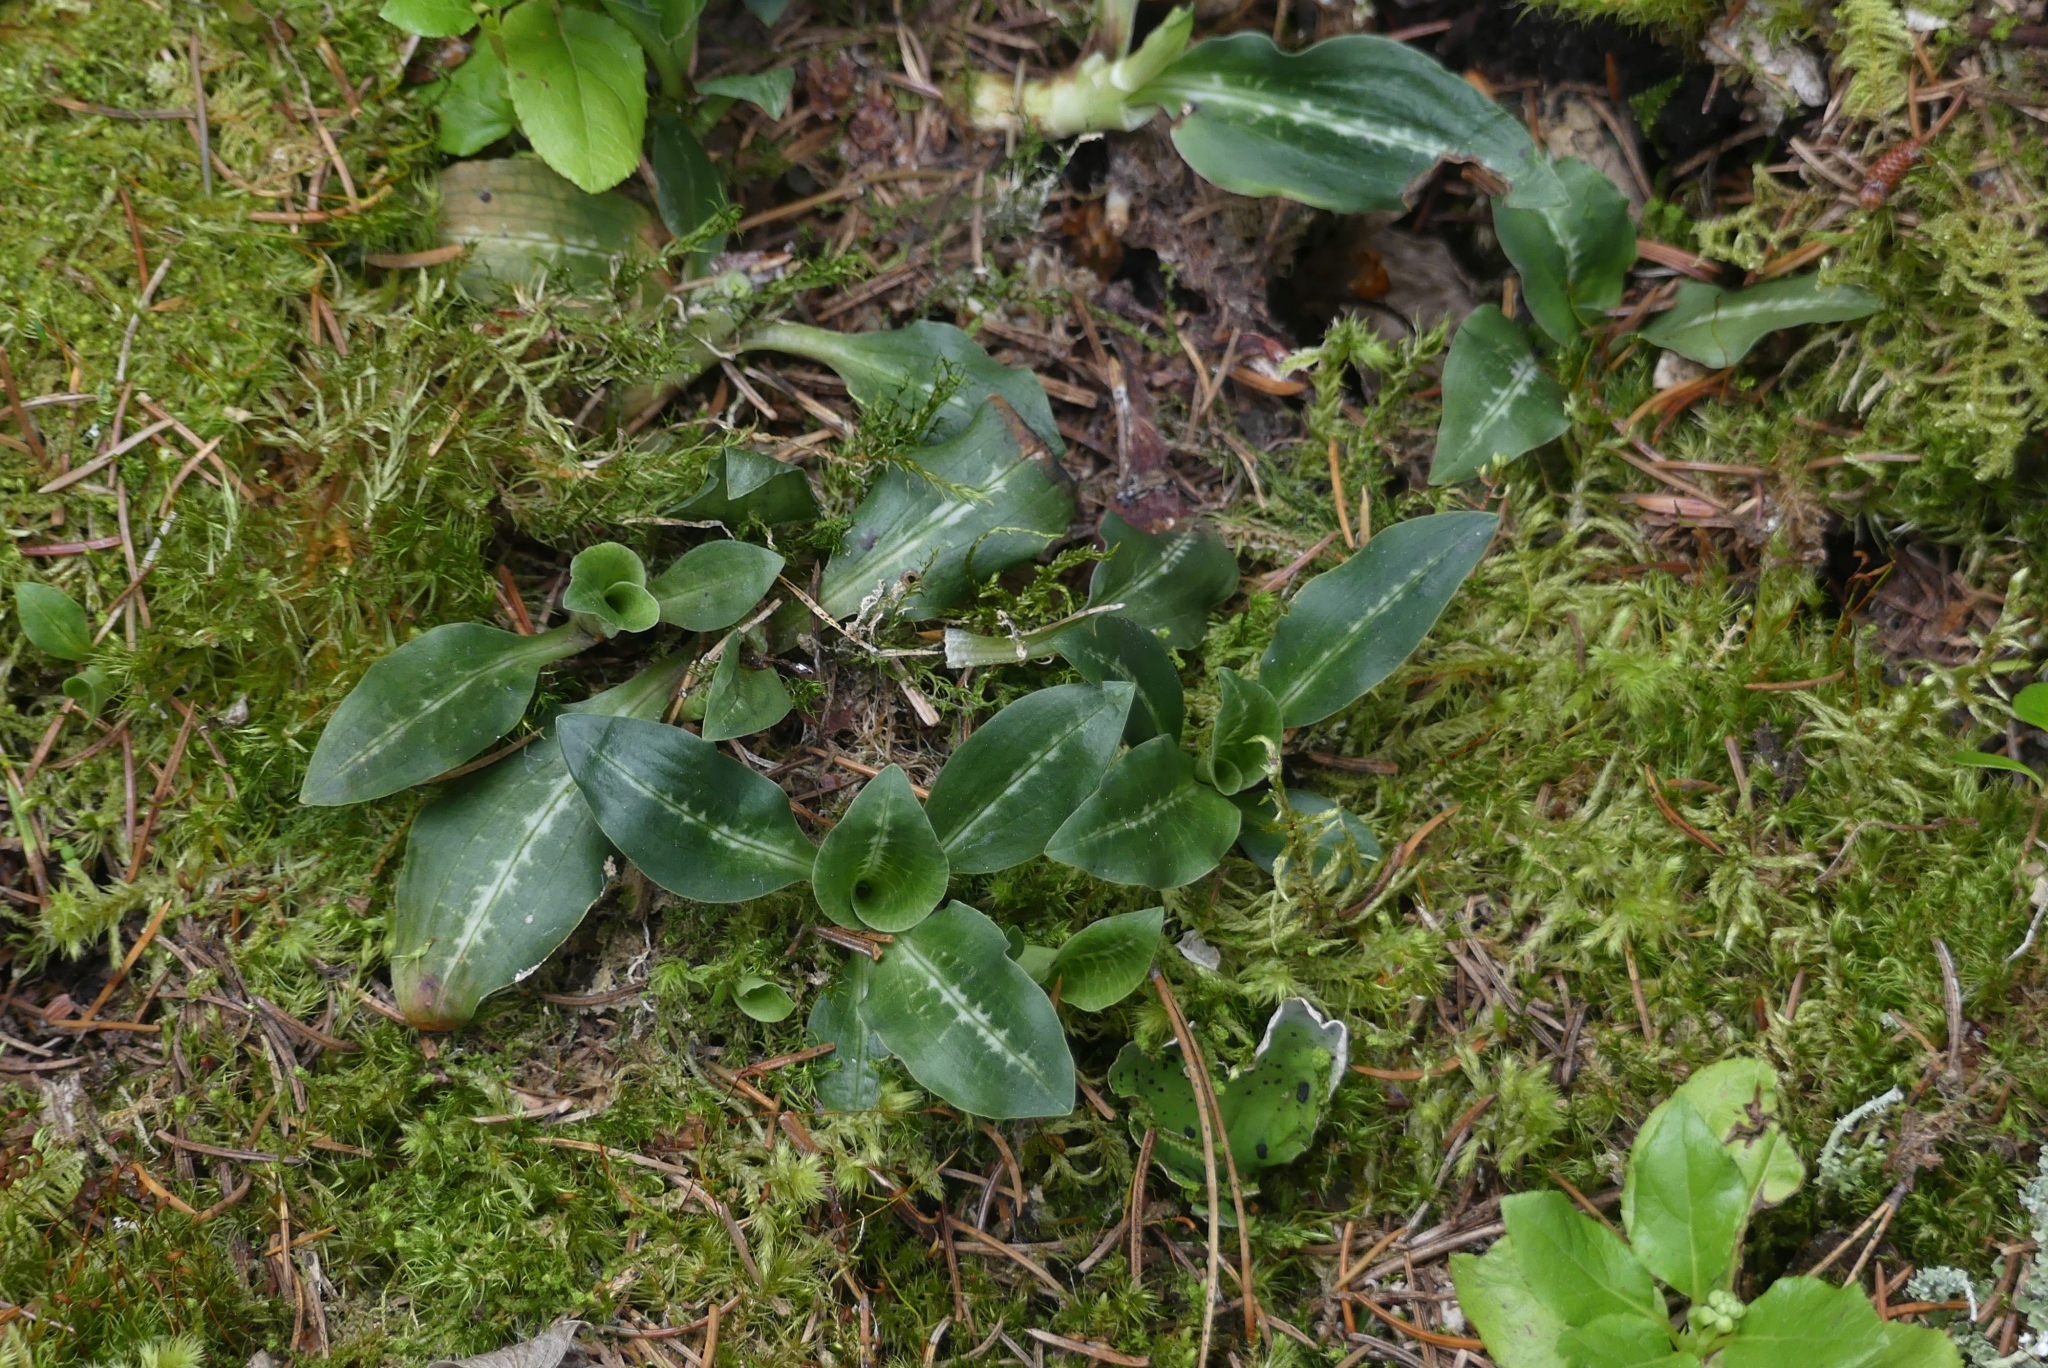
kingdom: Plantae
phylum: Tracheophyta
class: Liliopsida
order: Asparagales
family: Orchidaceae
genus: Goodyera
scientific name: Goodyera oblongifolia
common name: Giant rattlesnake-plantain
